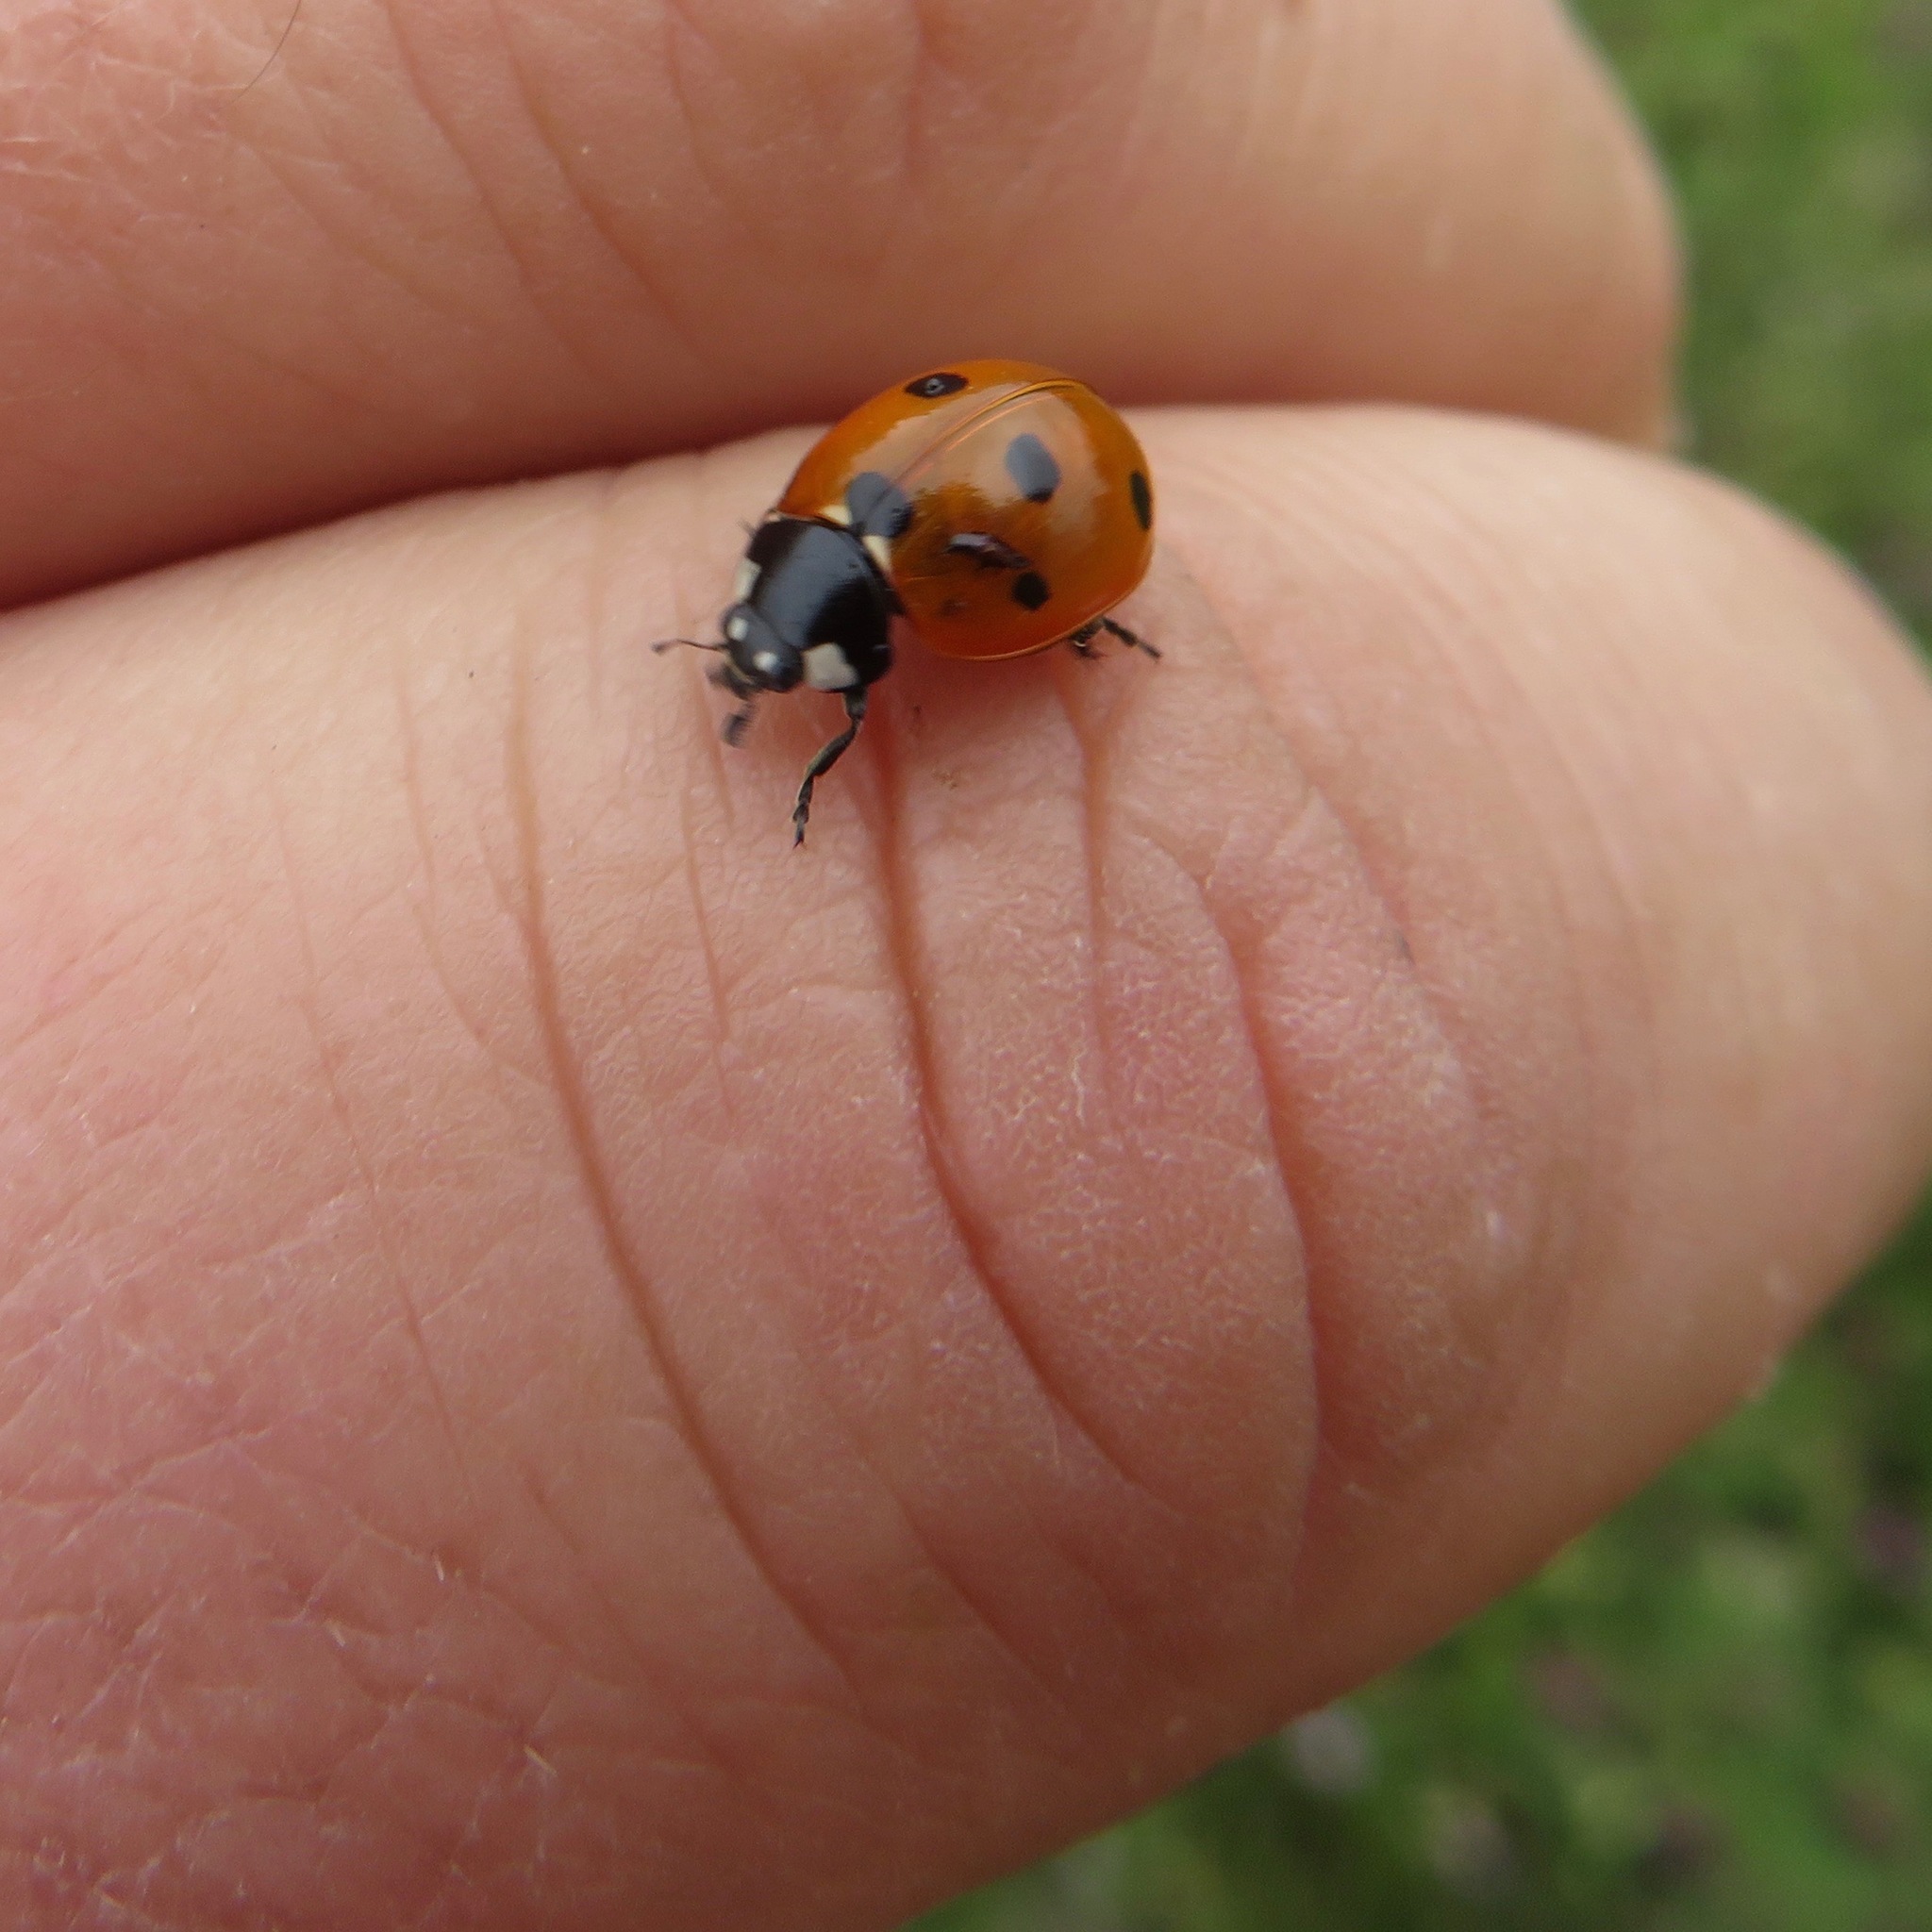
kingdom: Animalia
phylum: Arthropoda
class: Insecta
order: Coleoptera
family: Coccinellidae
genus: Coccinella
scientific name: Coccinella septempunctata
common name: Sevenspotted lady beetle
